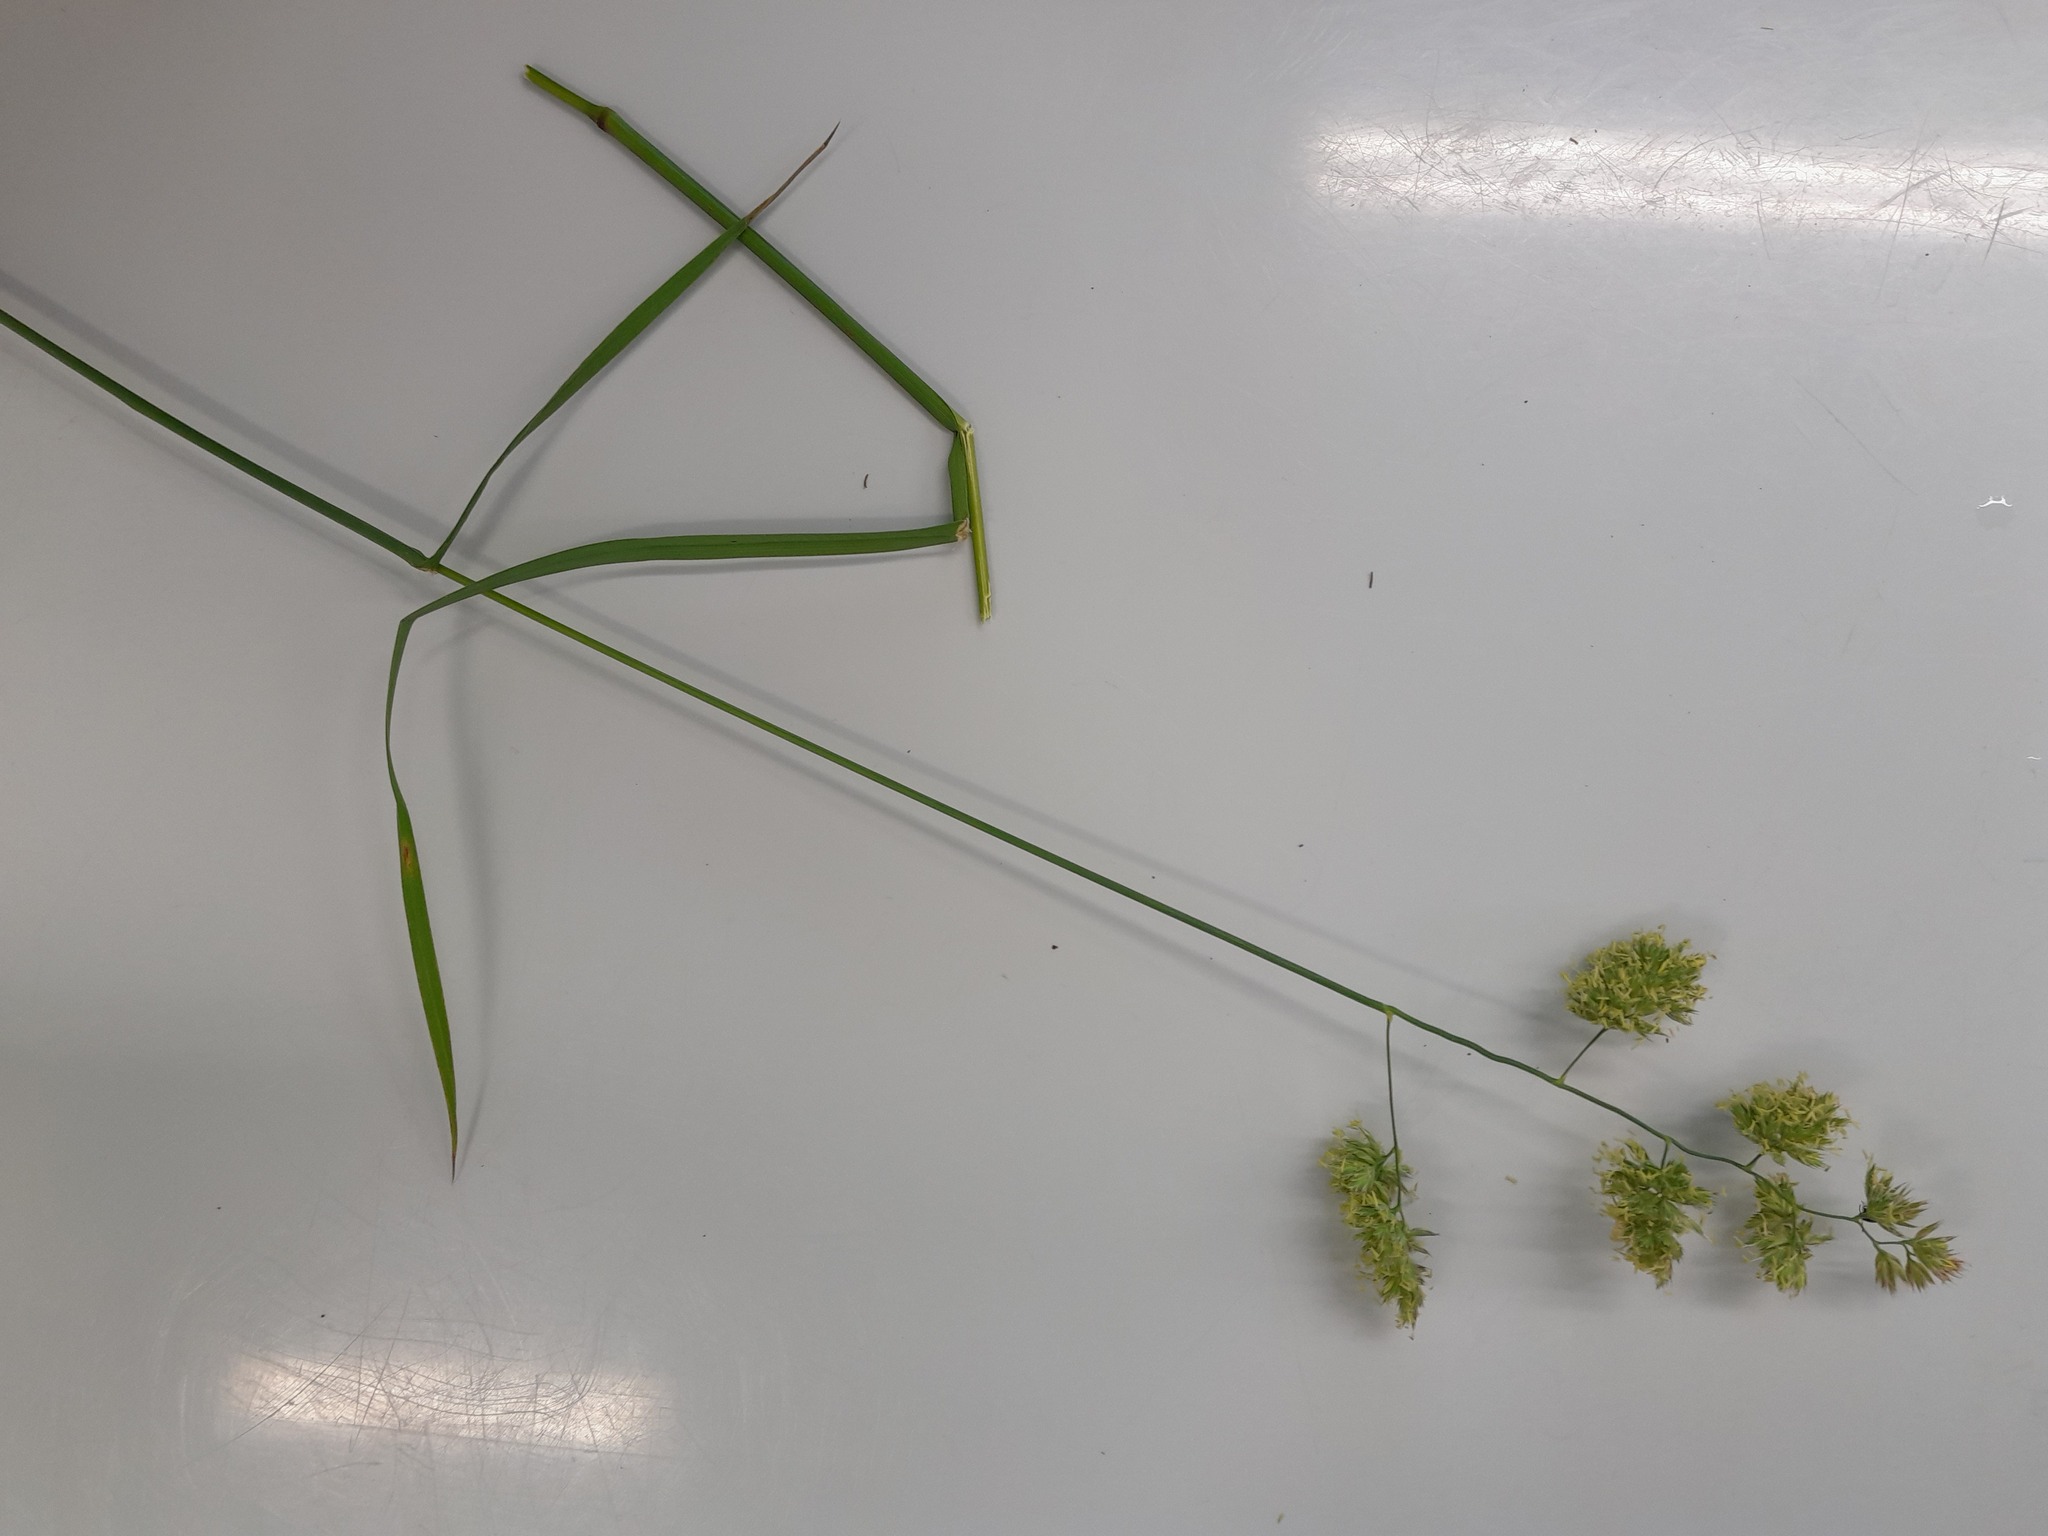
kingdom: Plantae
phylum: Tracheophyta
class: Liliopsida
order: Poales
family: Poaceae
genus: Dactylis
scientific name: Dactylis glomerata
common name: Orchardgrass
